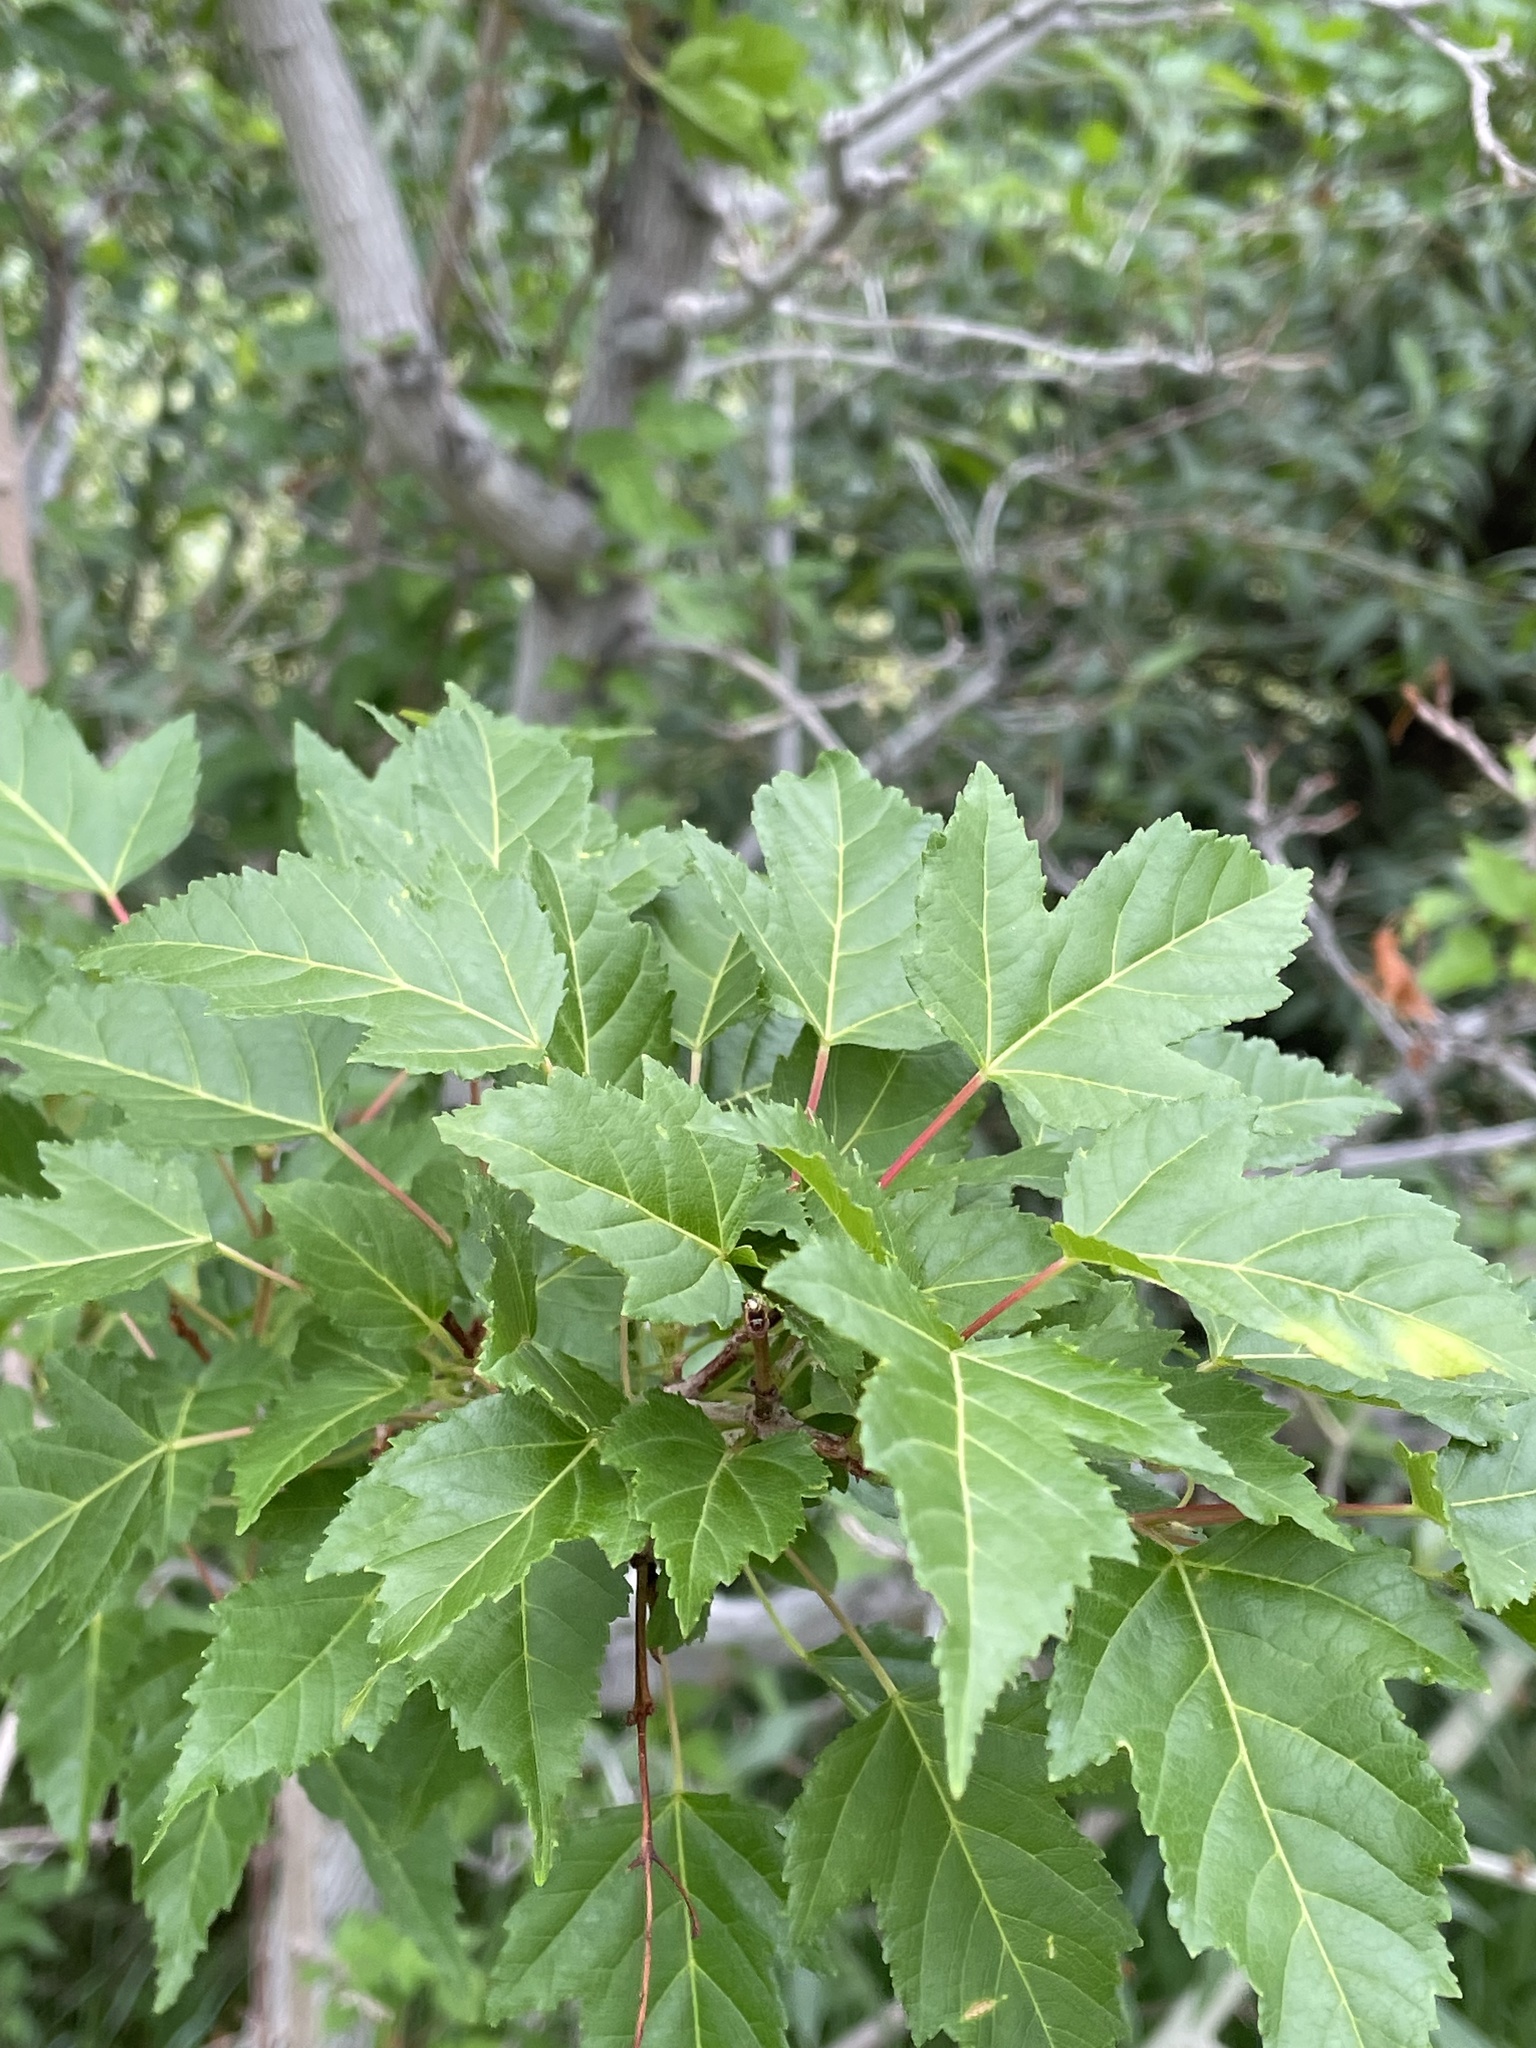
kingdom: Plantae
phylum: Tracheophyta
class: Magnoliopsida
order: Sapindales
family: Sapindaceae
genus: Acer
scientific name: Acer tataricum
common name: Tartar maple
